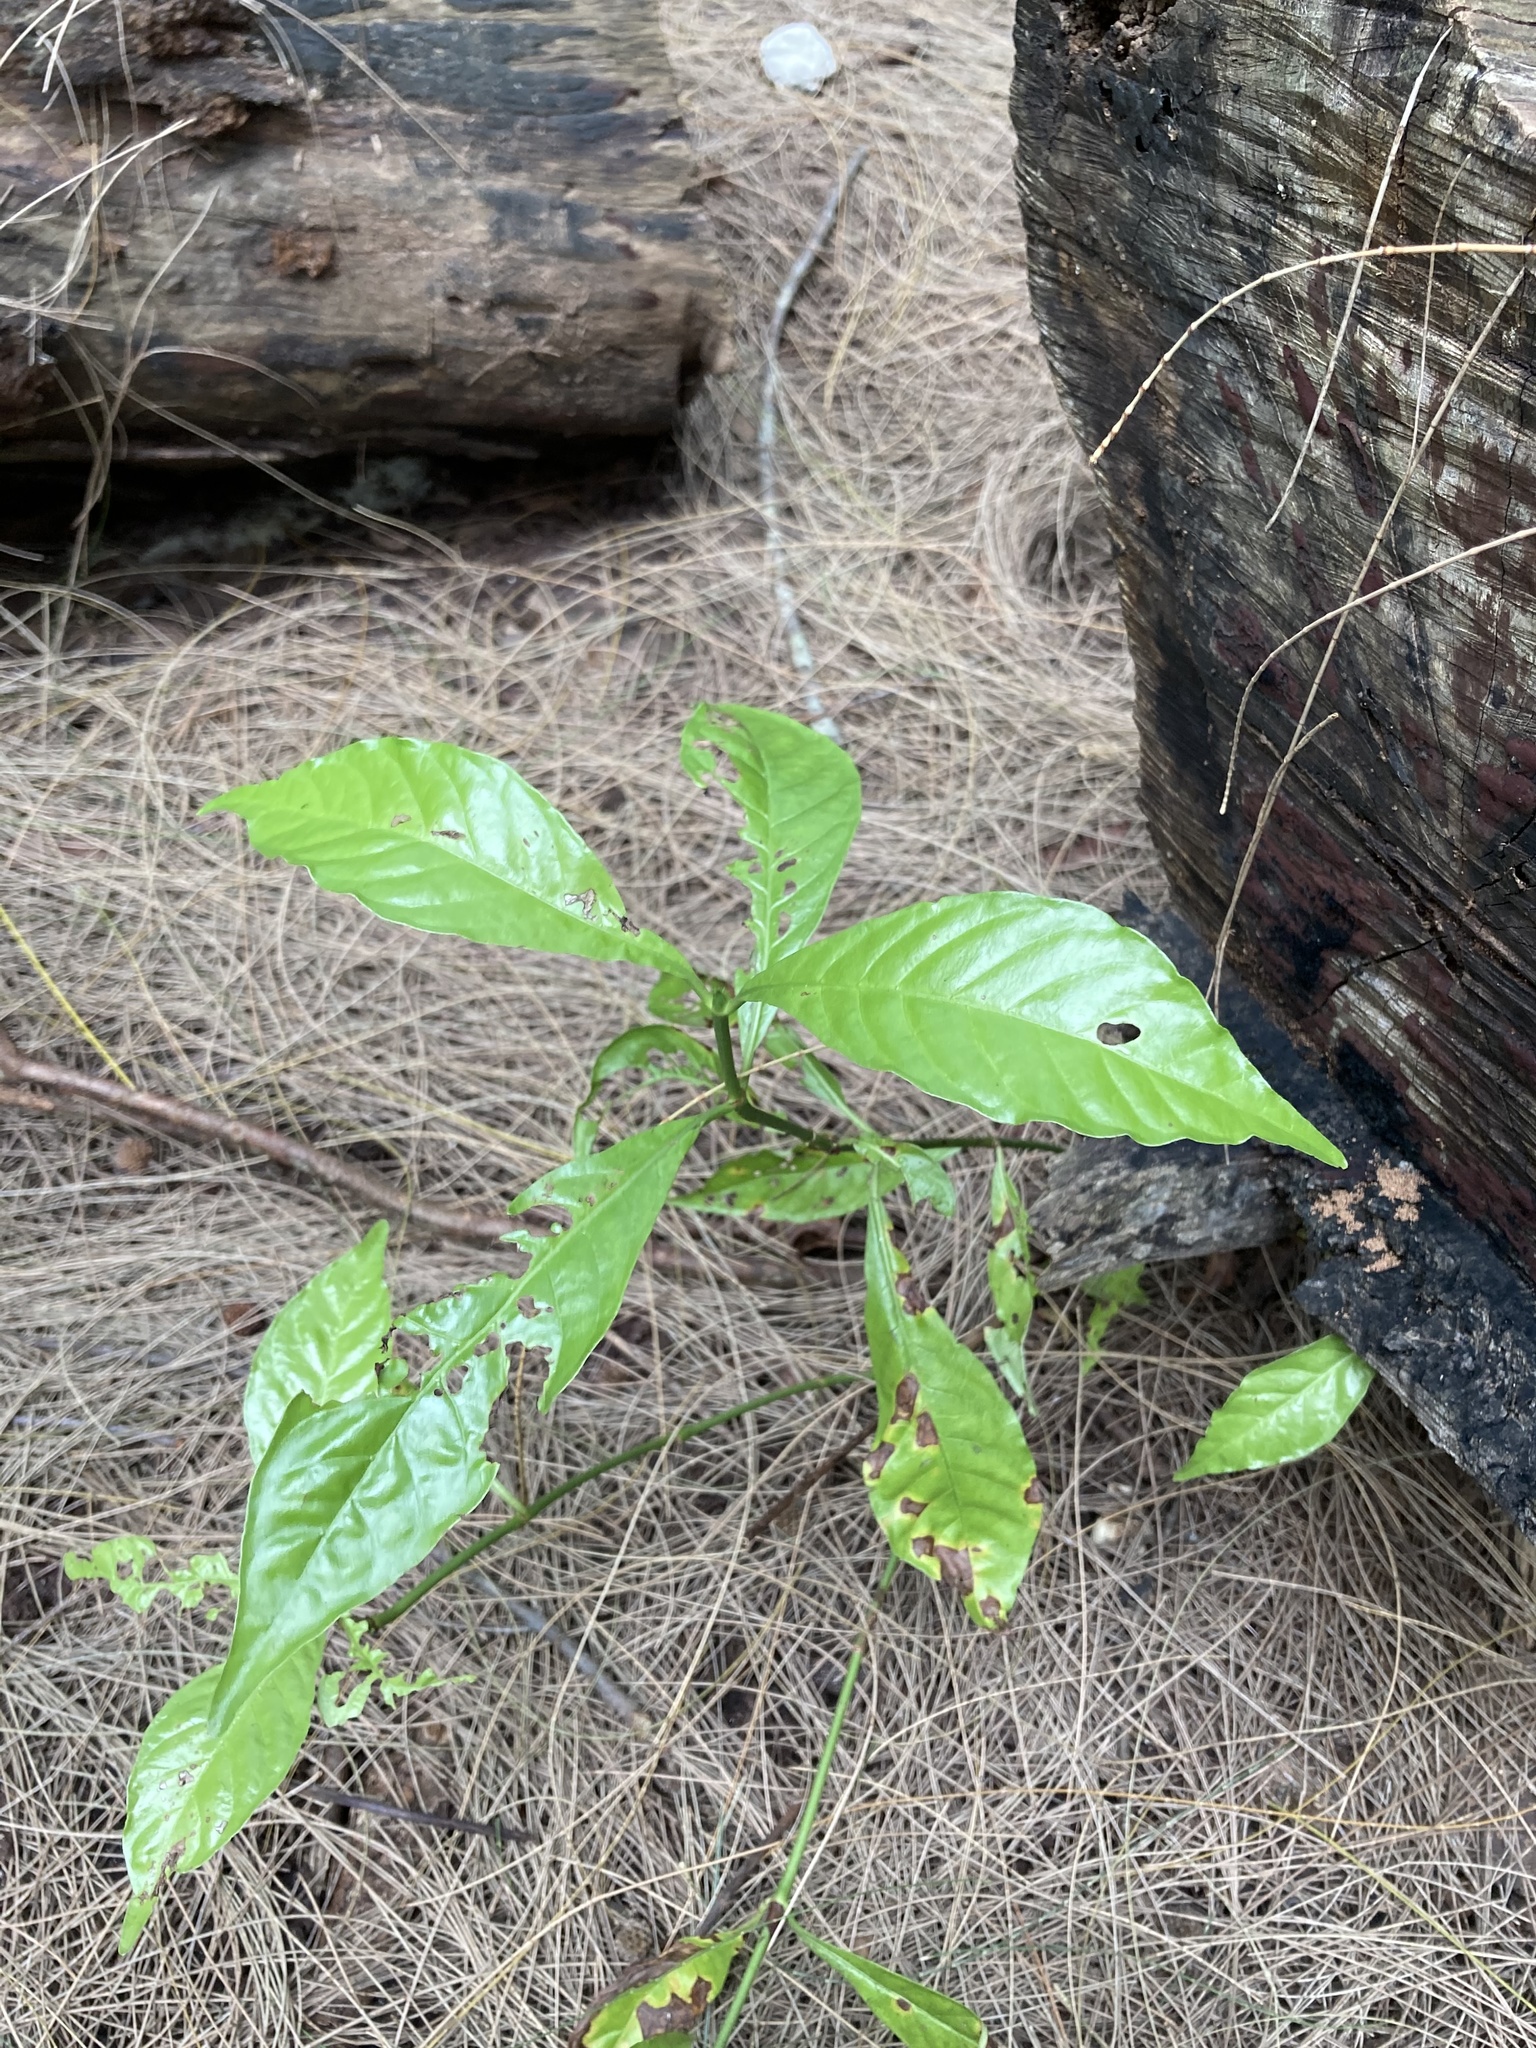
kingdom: Plantae
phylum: Tracheophyta
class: Magnoliopsida
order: Gentianales
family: Rubiaceae
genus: Psychotria
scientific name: Psychotria nervosa
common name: Bastard cankerberry
